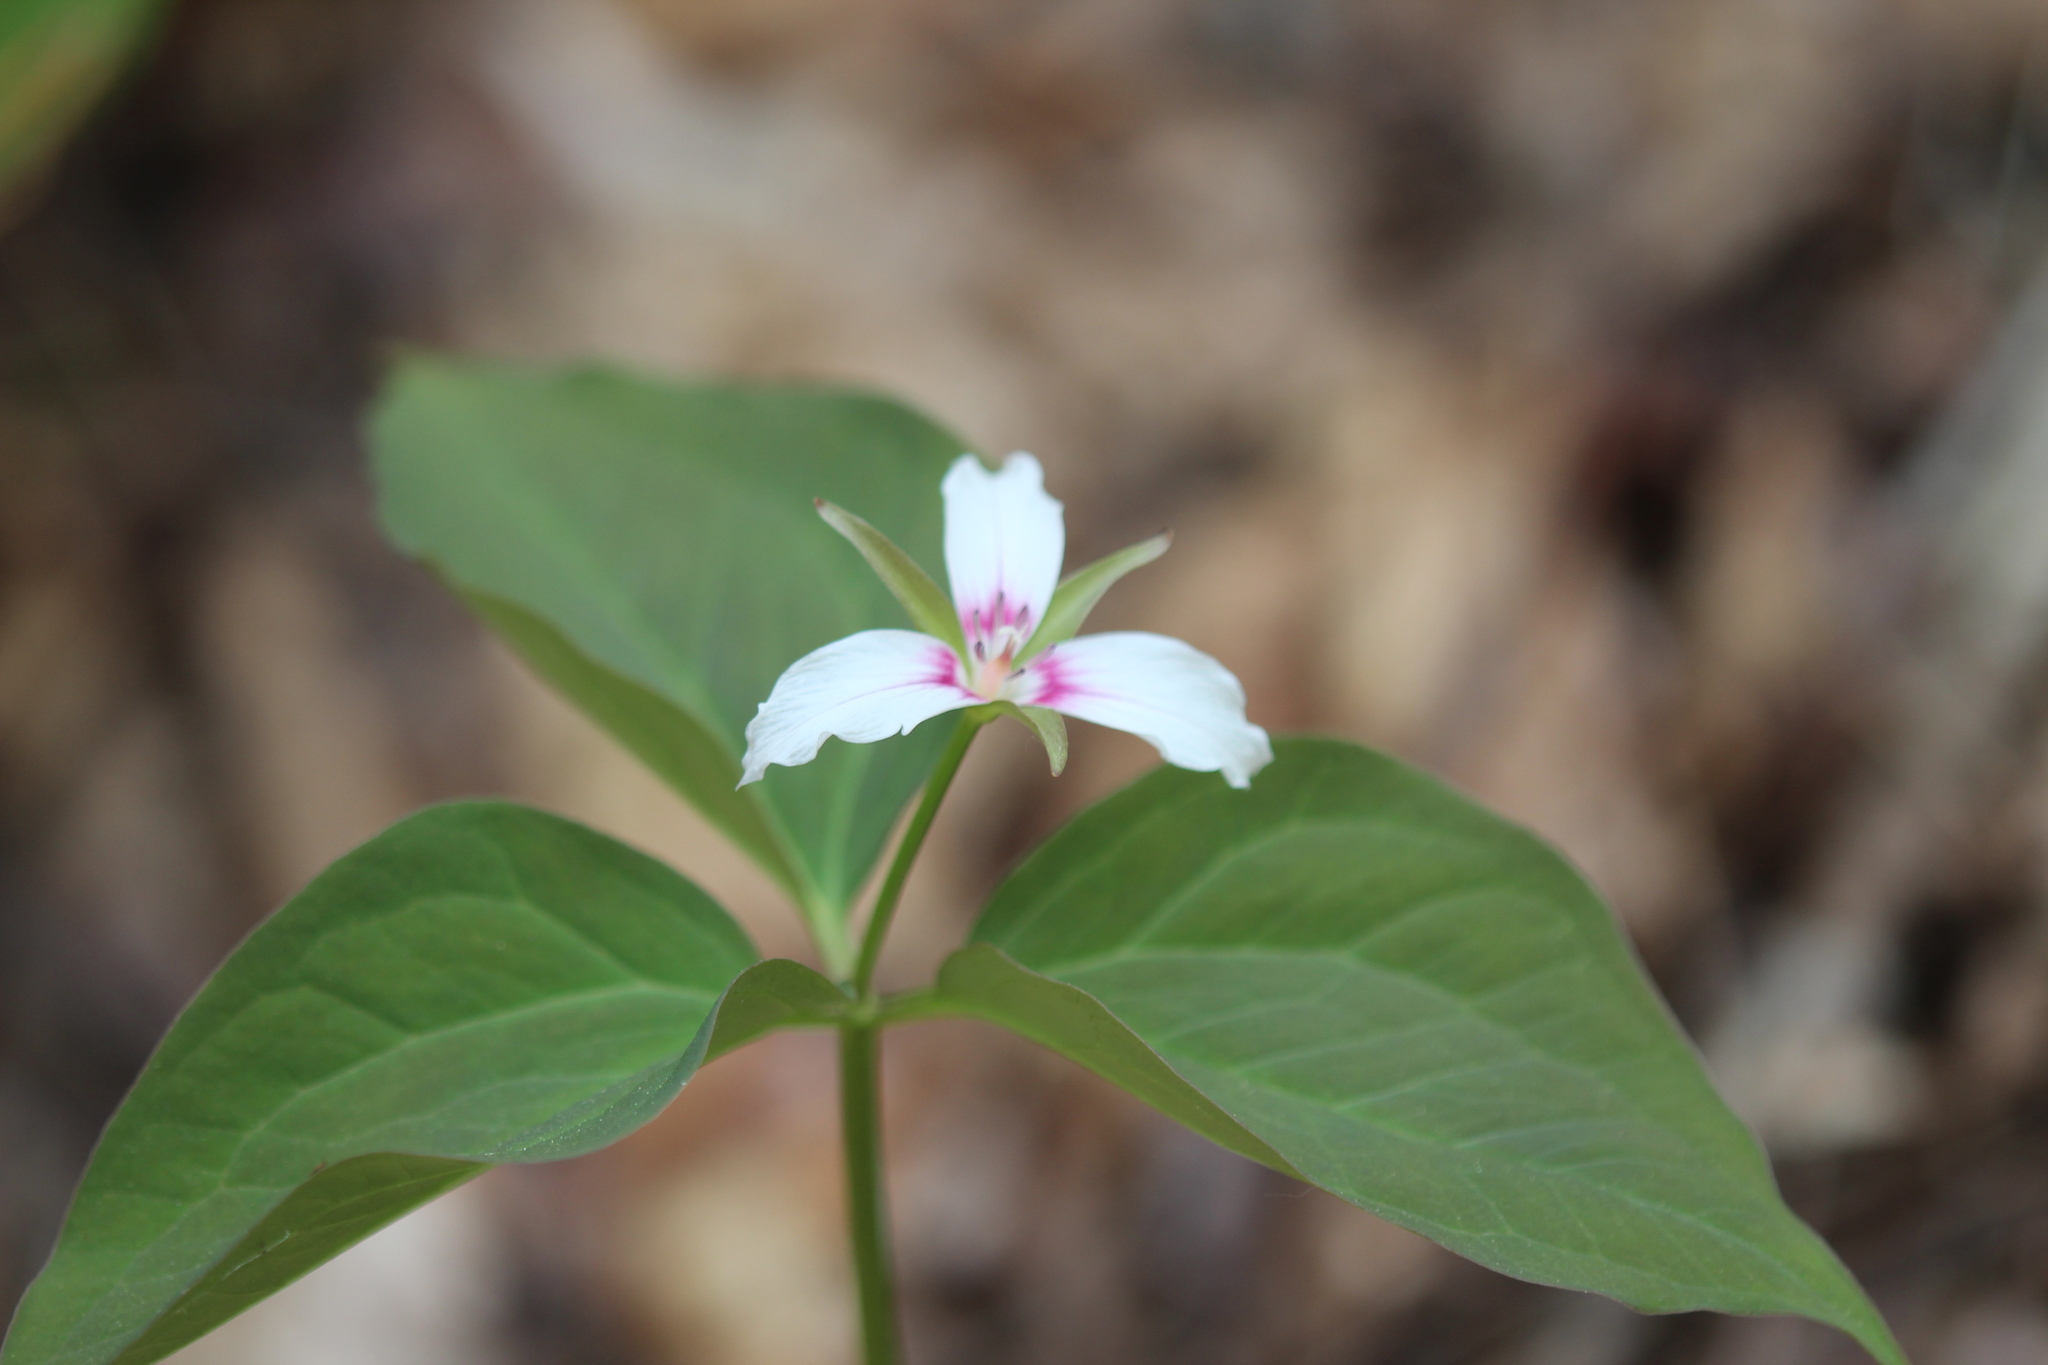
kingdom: Plantae
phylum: Tracheophyta
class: Liliopsida
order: Liliales
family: Melanthiaceae
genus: Trillium
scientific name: Trillium undulatum
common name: Paint trillium
